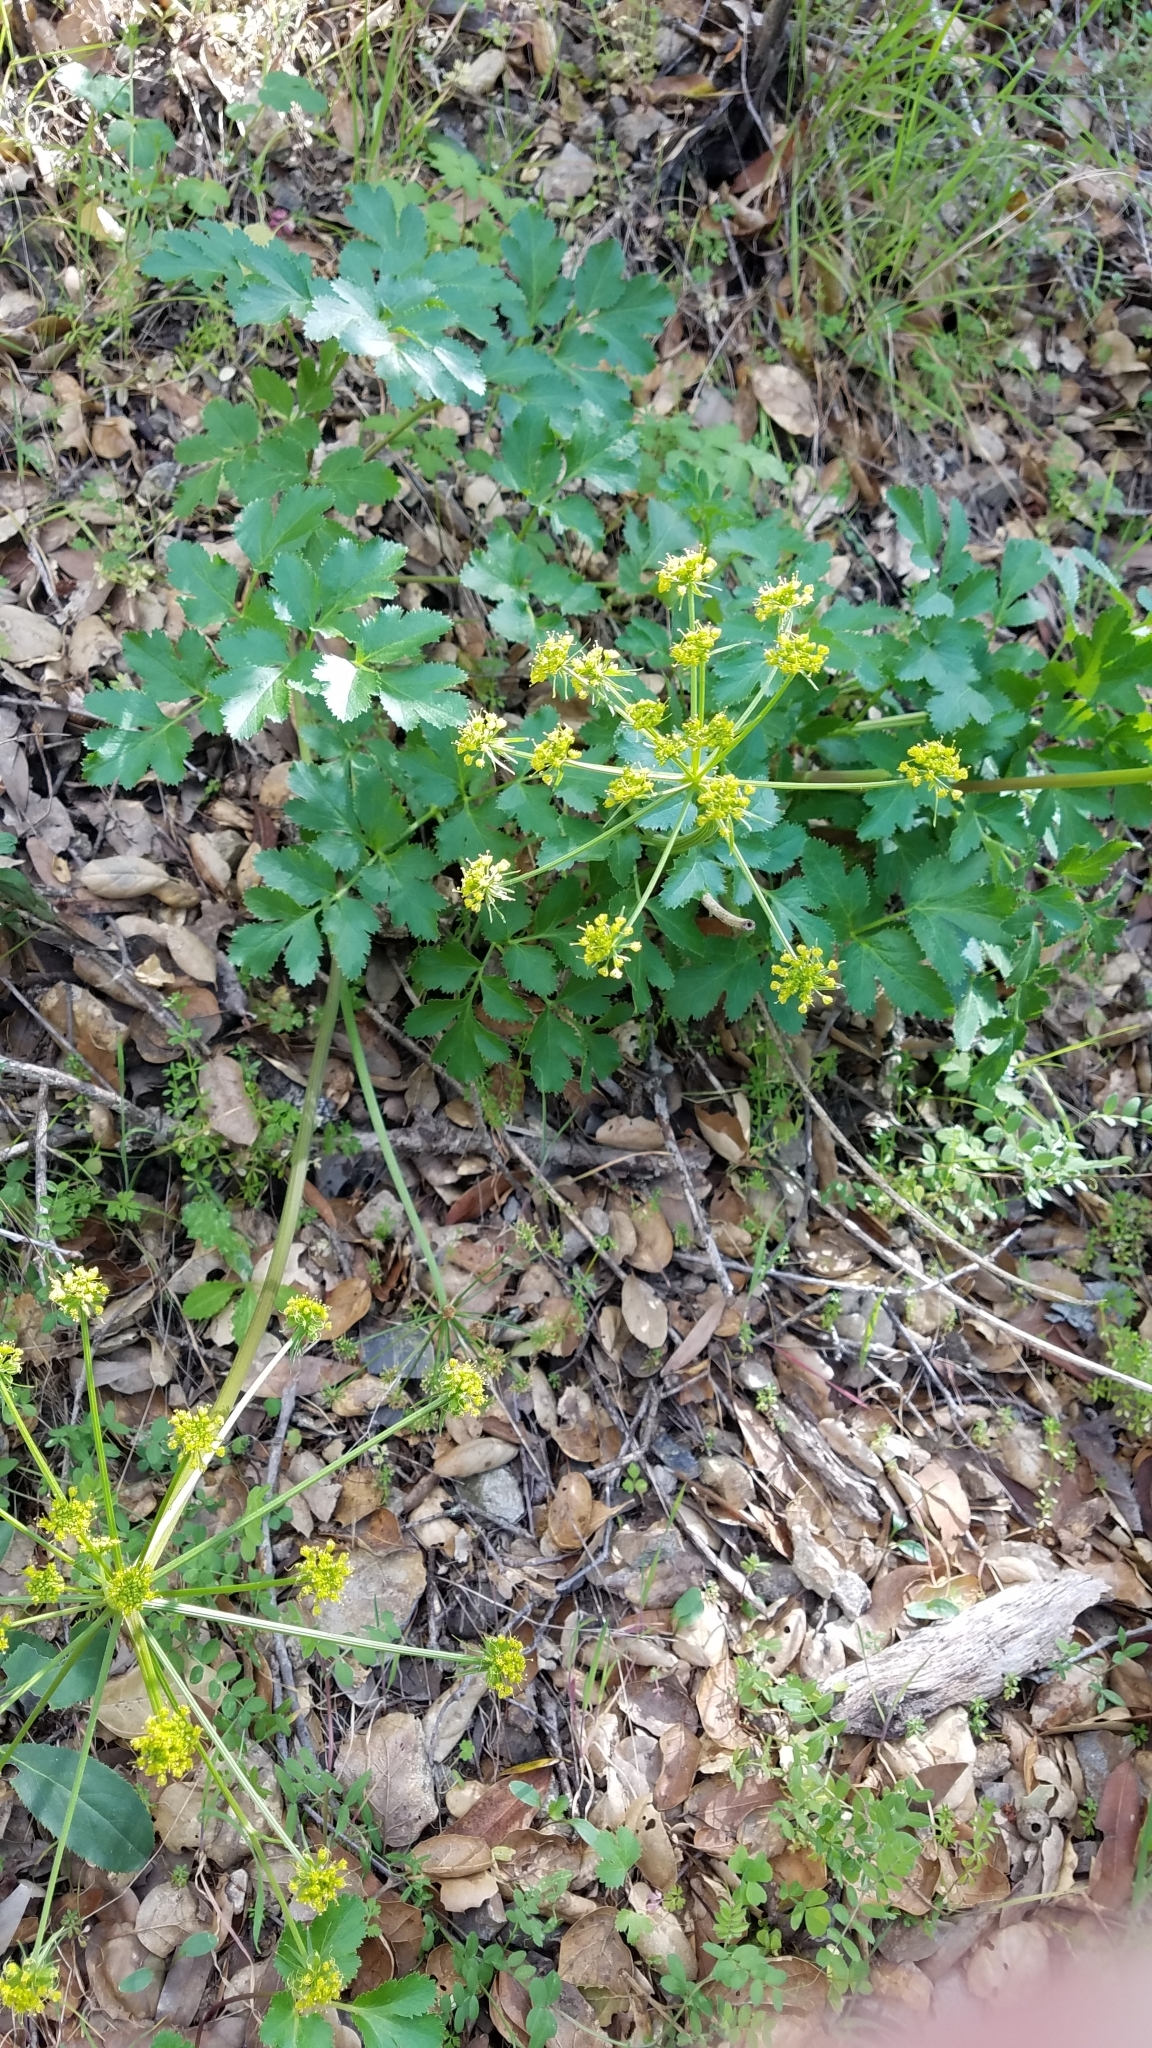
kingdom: Plantae
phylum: Tracheophyta
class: Magnoliopsida
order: Apiales
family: Apiaceae
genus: Tauschia
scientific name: Tauschia hartwegii
